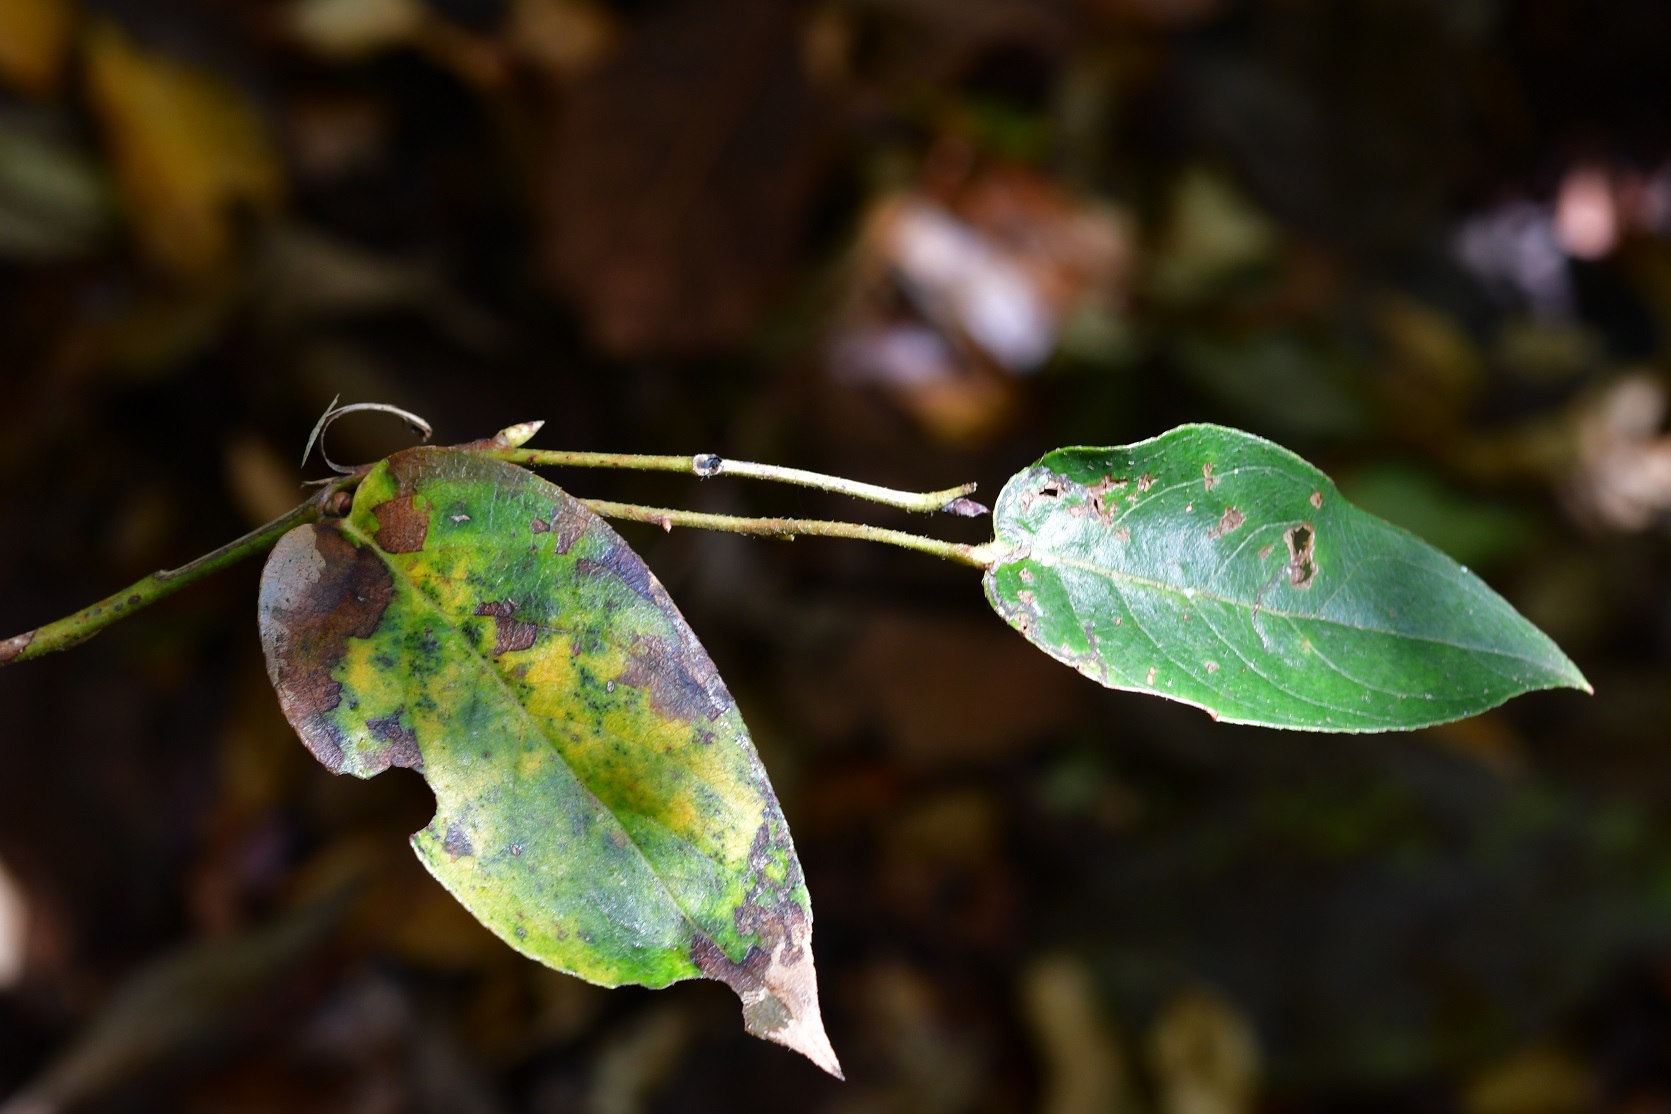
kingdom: Plantae
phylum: Tracheophyta
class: Magnoliopsida
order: Ericales
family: Ericaceae
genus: Gaultheria
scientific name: Gaultheria erecta
